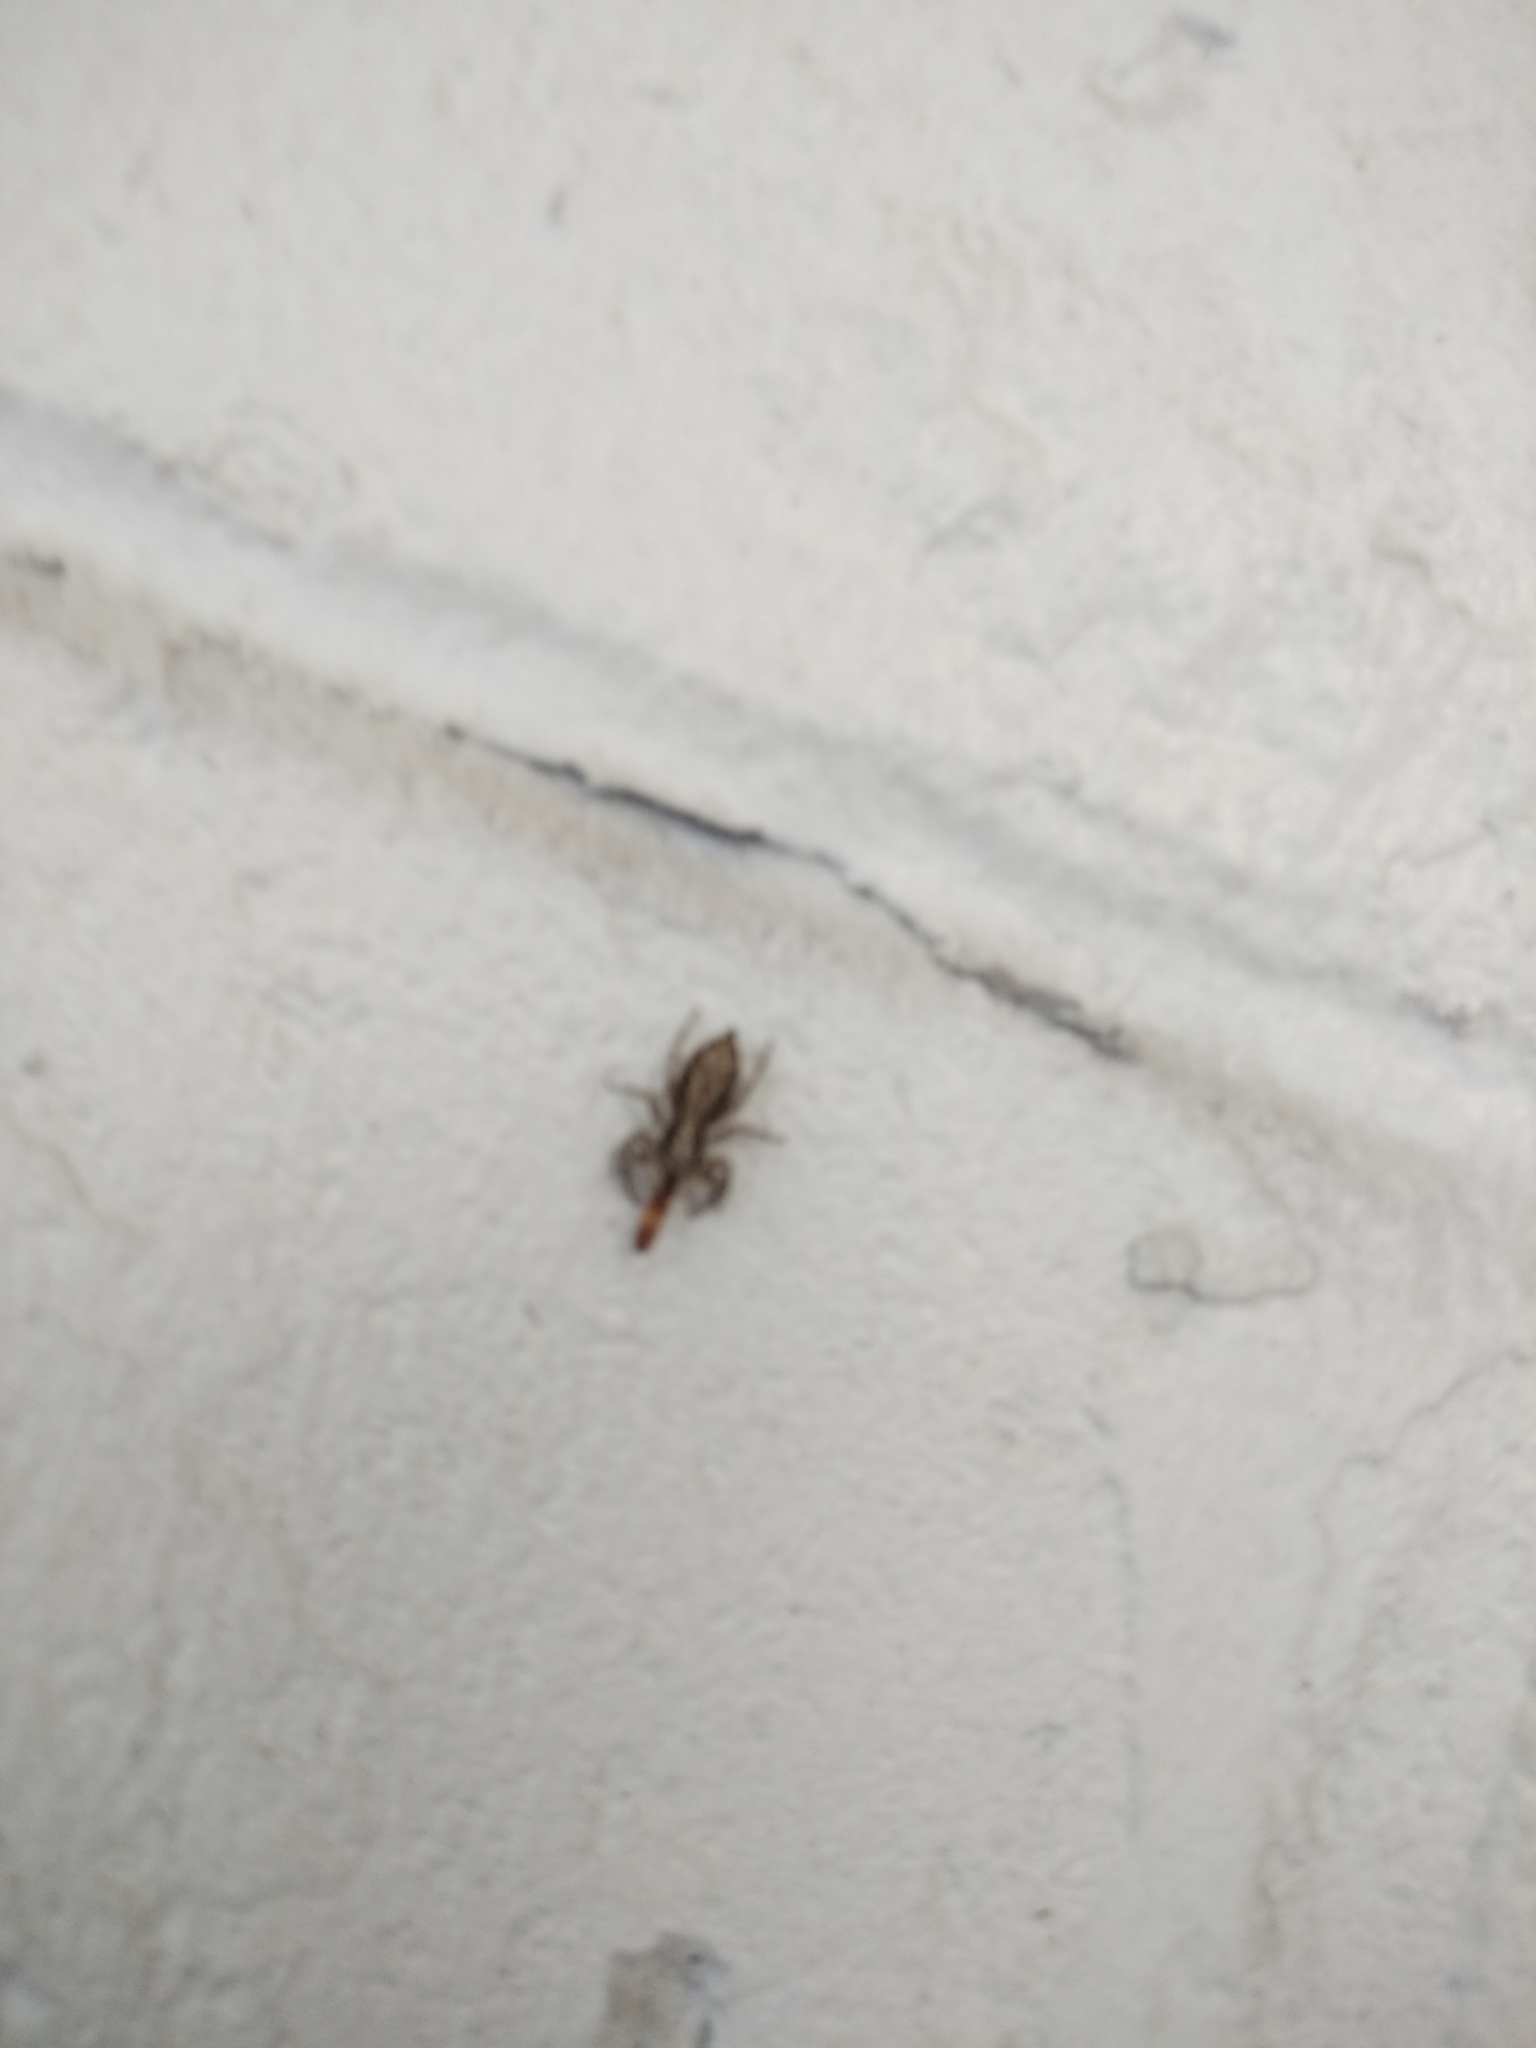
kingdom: Animalia
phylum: Arthropoda
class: Arachnida
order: Araneae
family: Salticidae
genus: Menemerus
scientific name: Menemerus bivittatus
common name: Gray wall jumper
